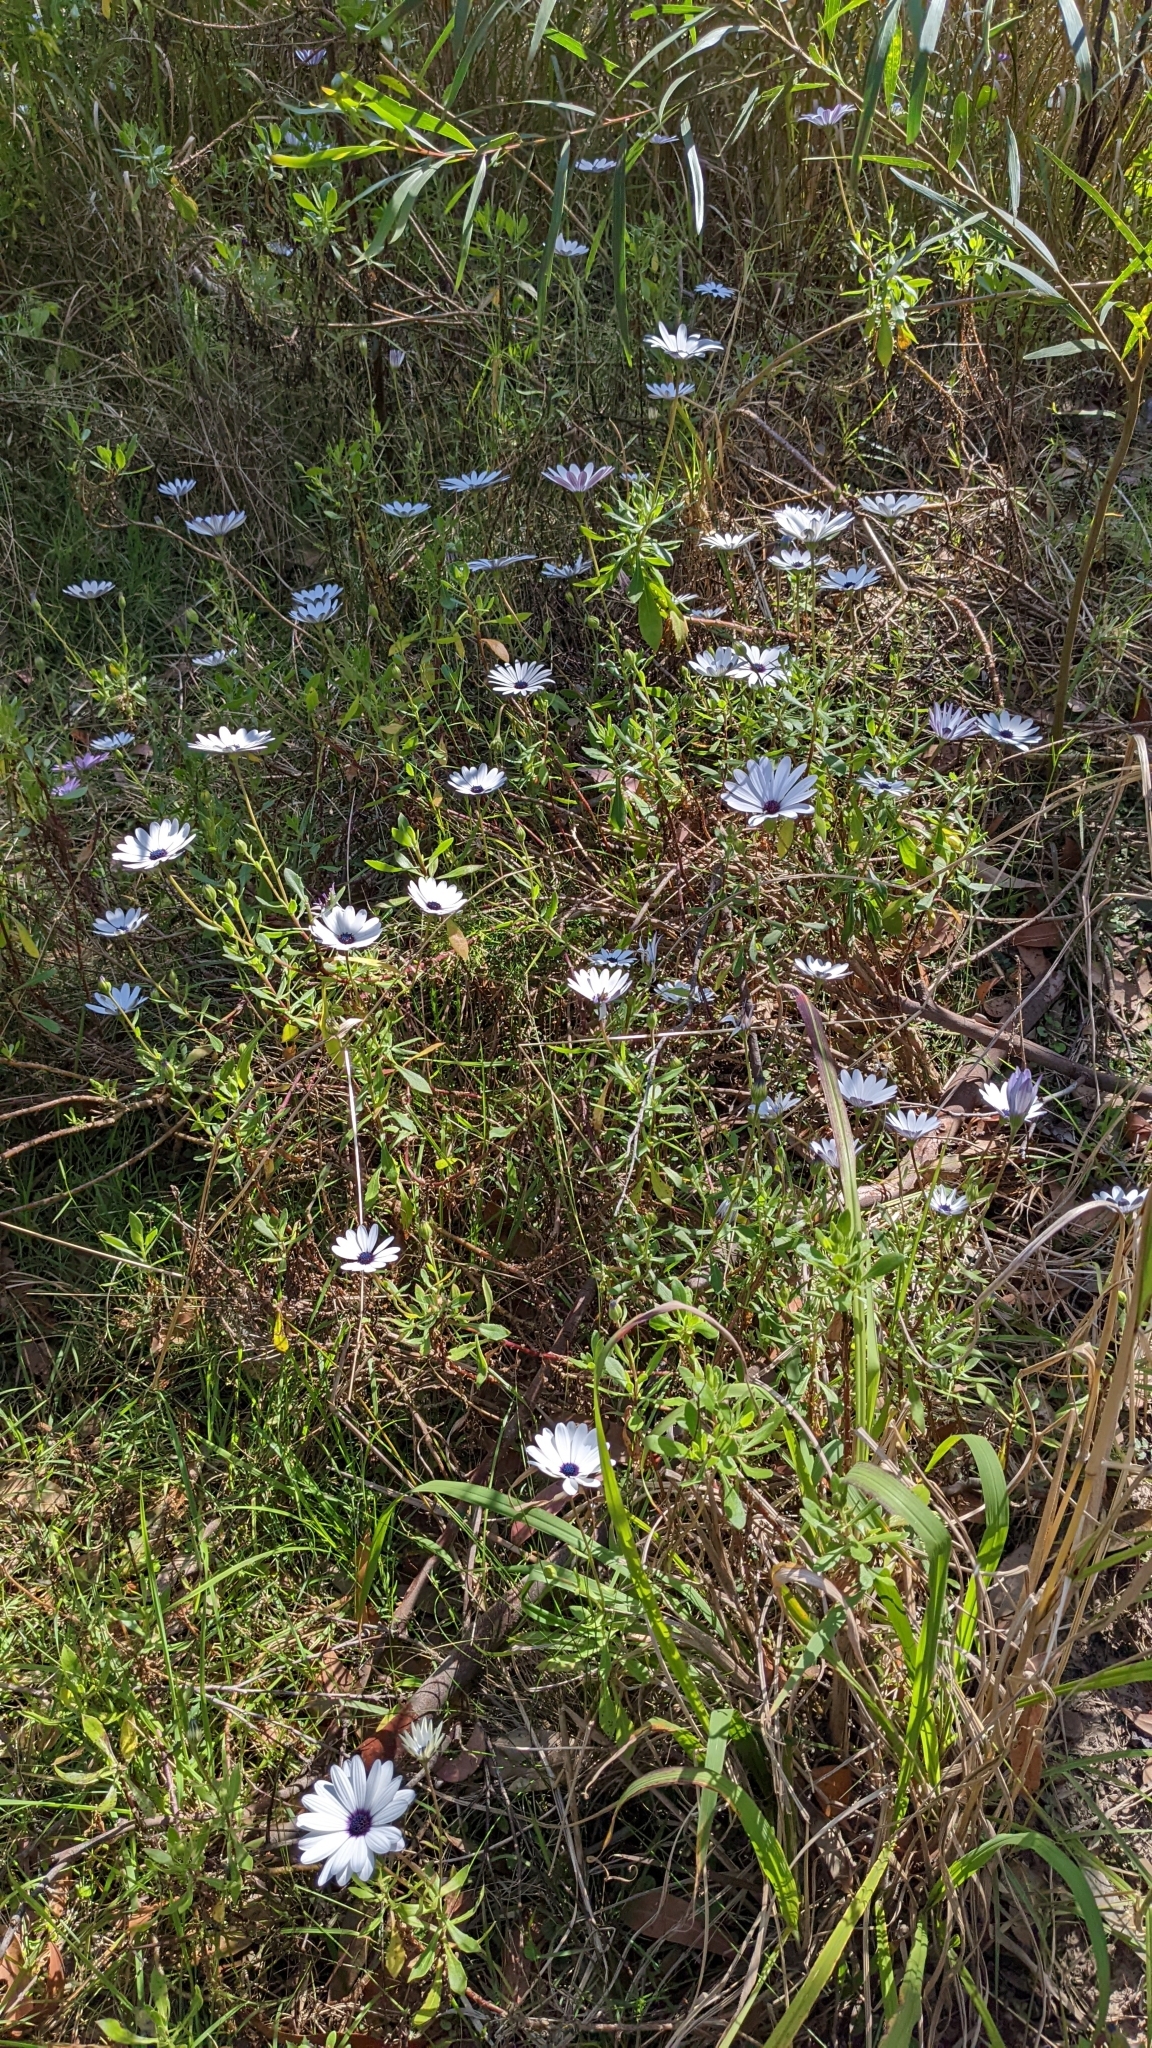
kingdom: Plantae
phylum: Tracheophyta
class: Magnoliopsida
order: Asterales
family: Asteraceae
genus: Dimorphotheca
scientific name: Dimorphotheca ecklonis
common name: Vanstaden's river daisy
